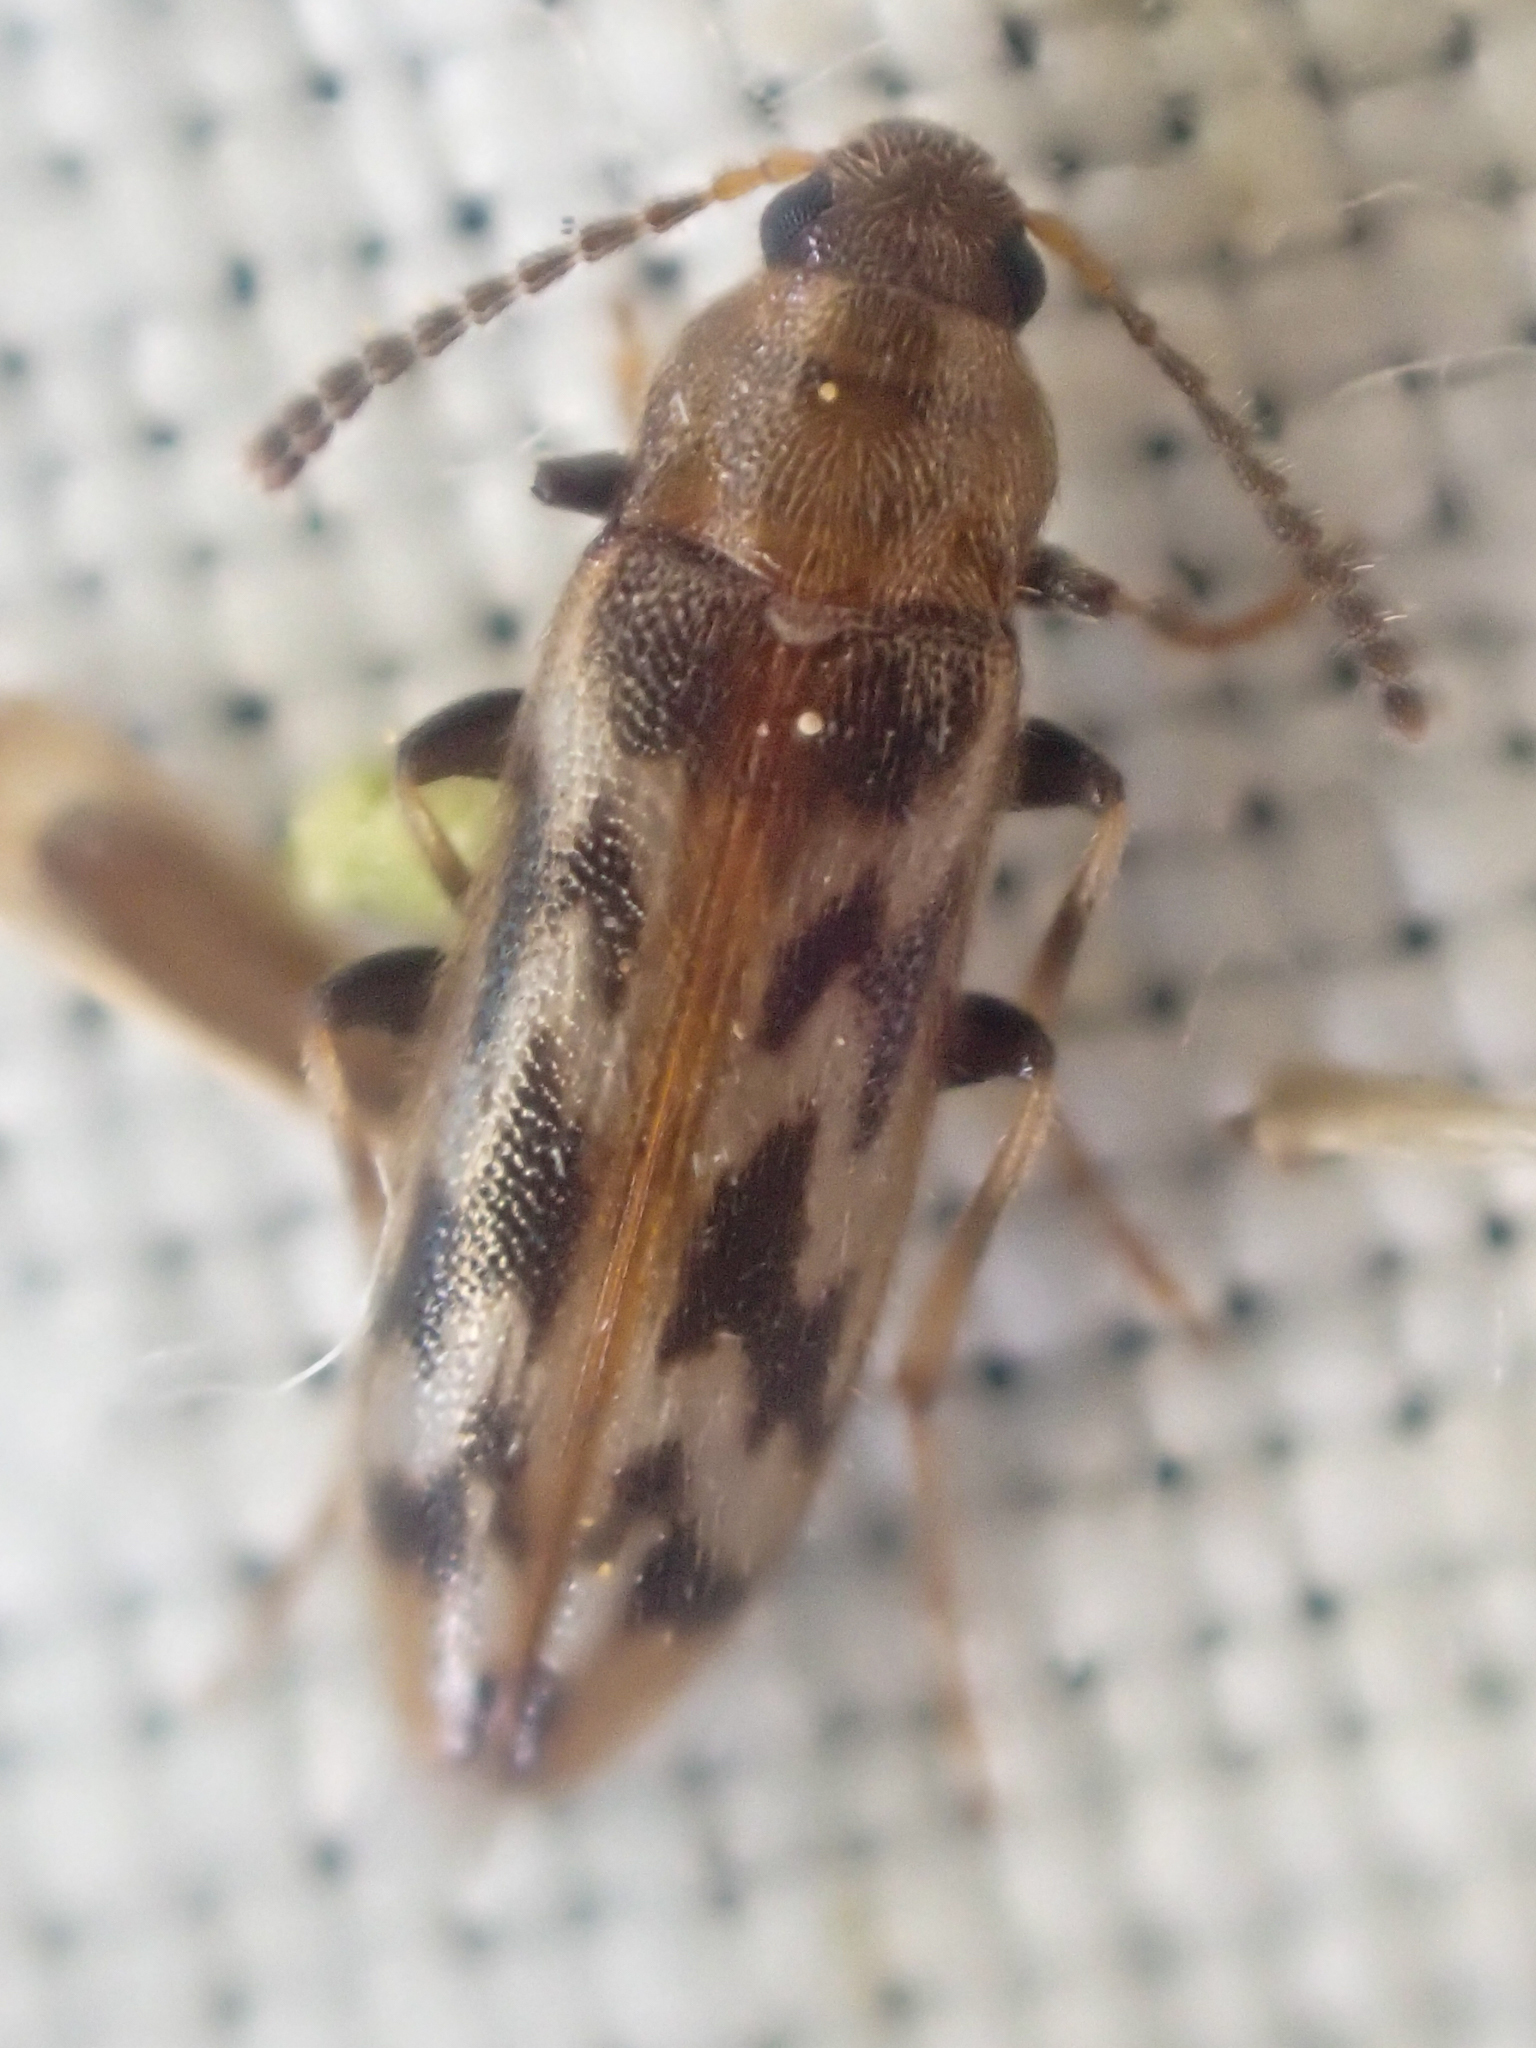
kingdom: Animalia
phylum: Arthropoda
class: Insecta
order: Coleoptera
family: Melandryidae
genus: Prothalpia
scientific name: Prothalpia holmbergi
